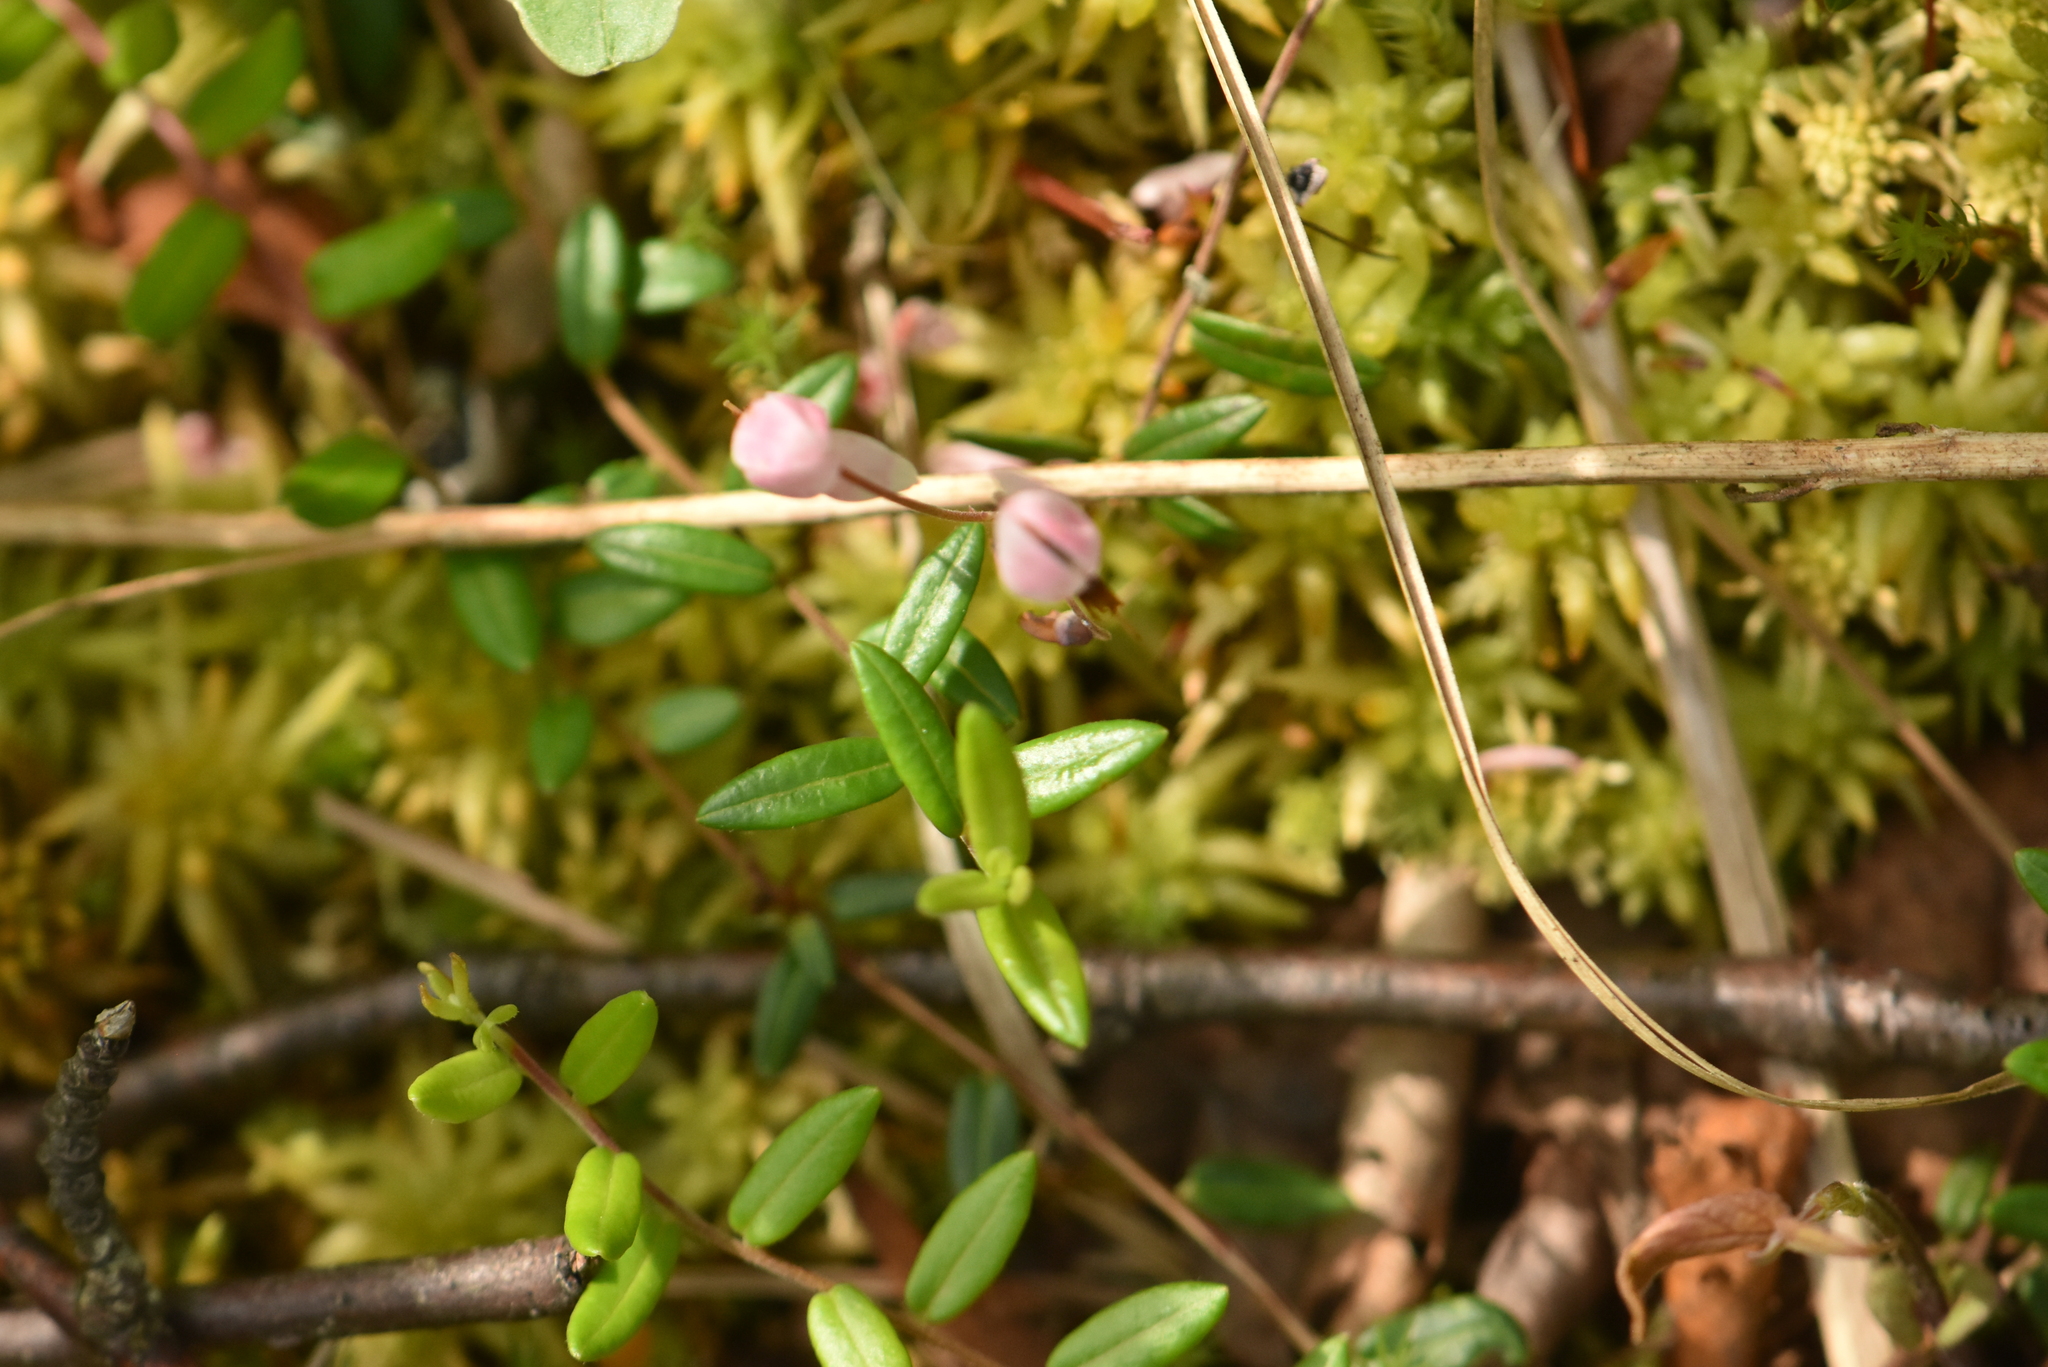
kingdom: Plantae
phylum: Tracheophyta
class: Magnoliopsida
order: Ericales
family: Ericaceae
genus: Vaccinium
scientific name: Vaccinium oxycoccos
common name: Cranberry
